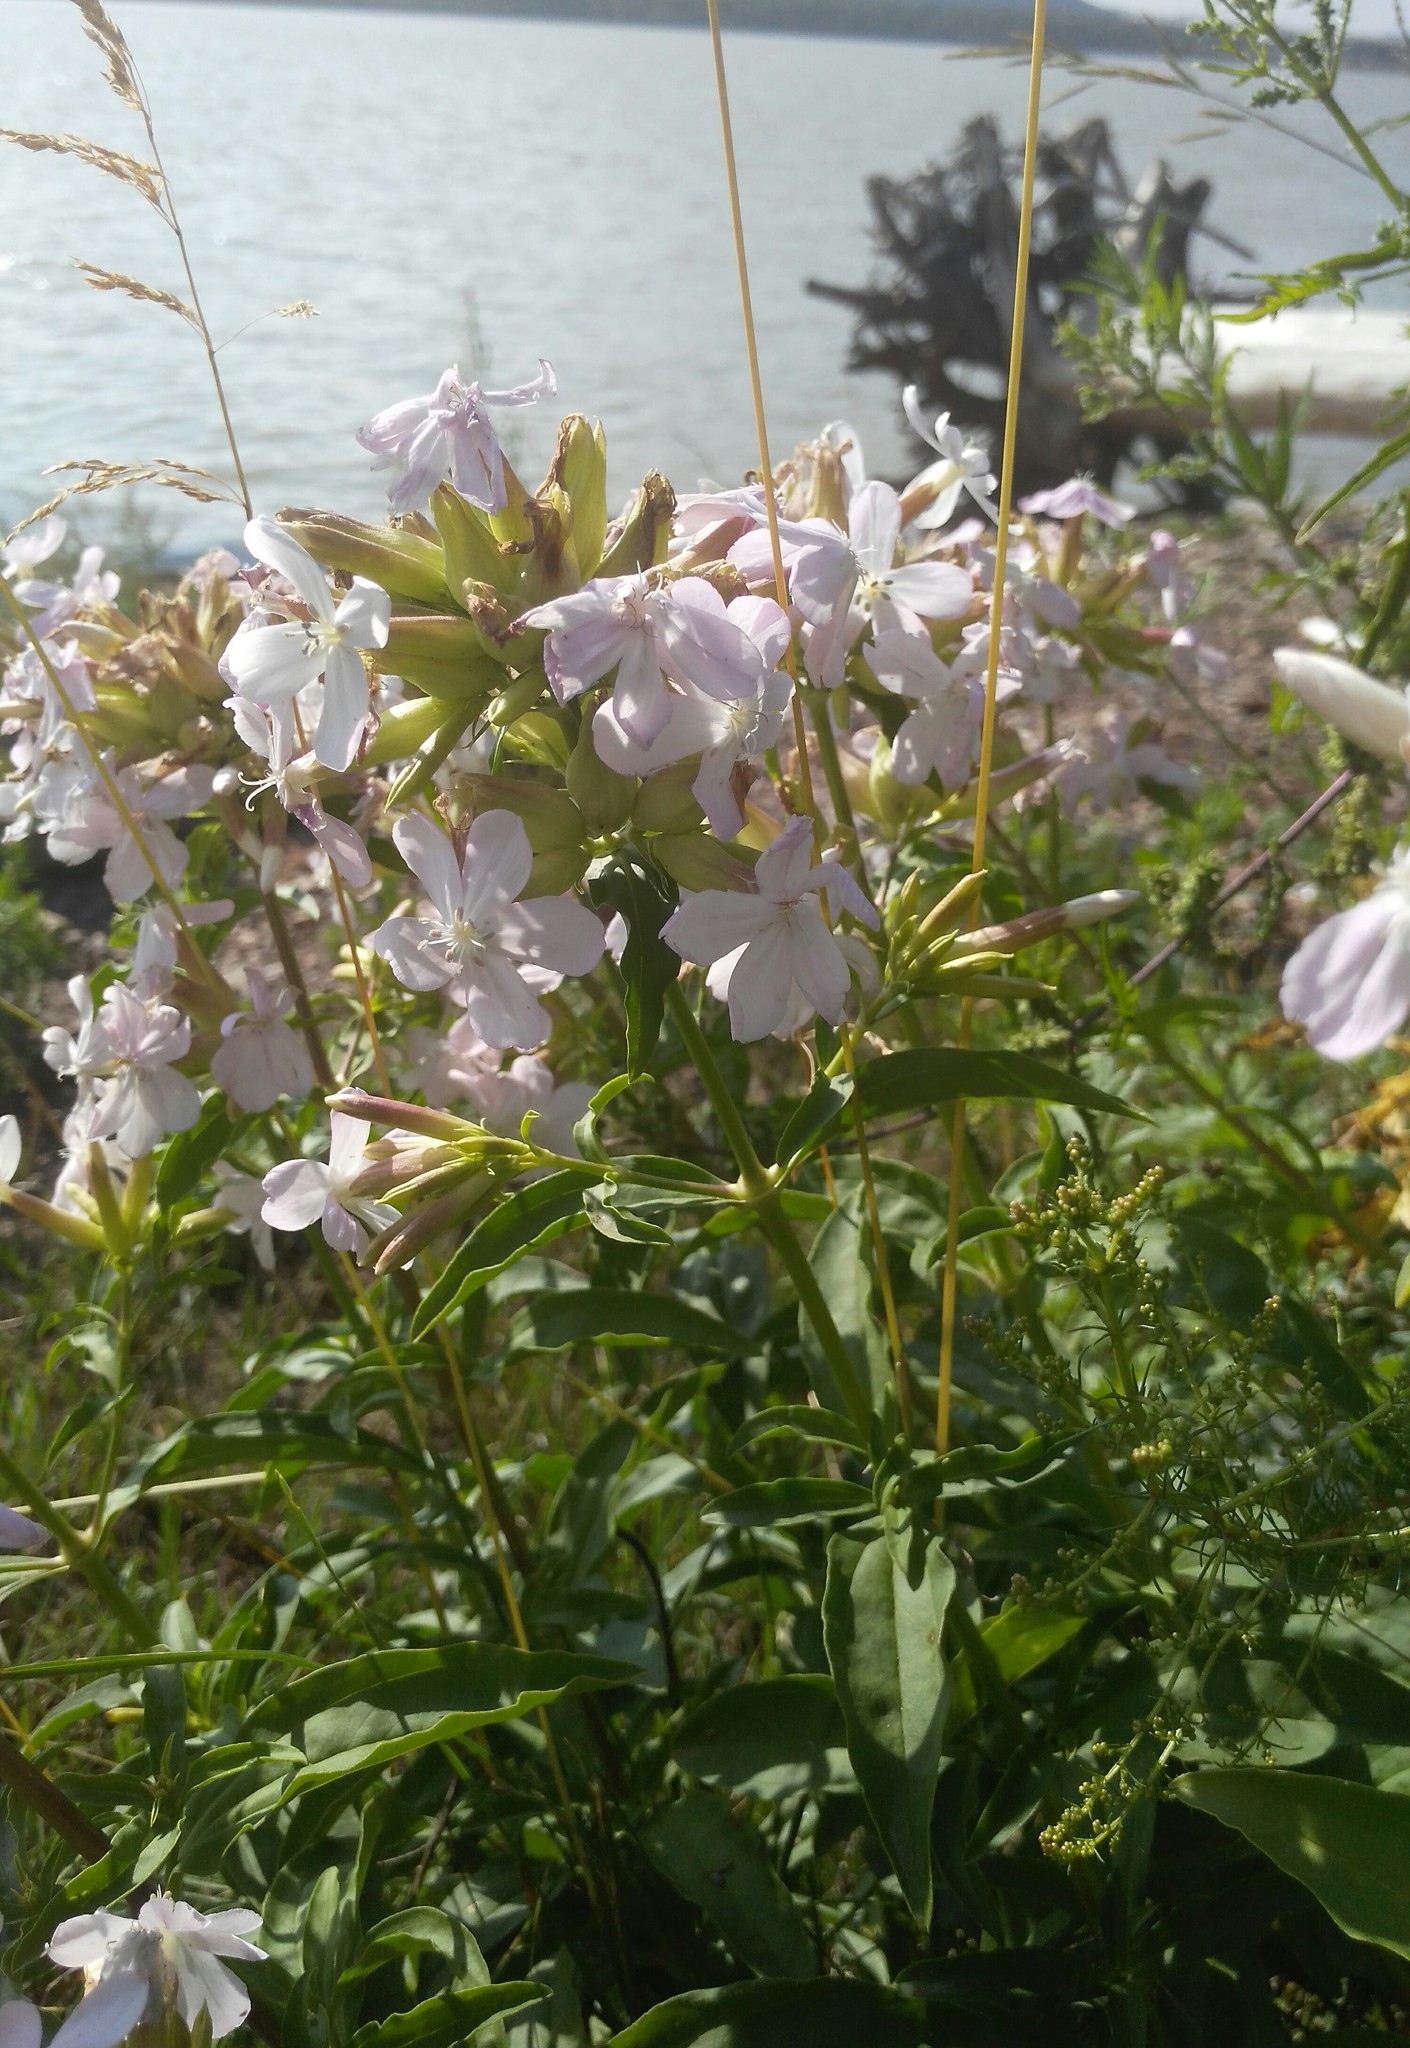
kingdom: Plantae
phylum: Tracheophyta
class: Magnoliopsida
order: Caryophyllales
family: Caryophyllaceae
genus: Saponaria
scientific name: Saponaria officinalis
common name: Soapwort
